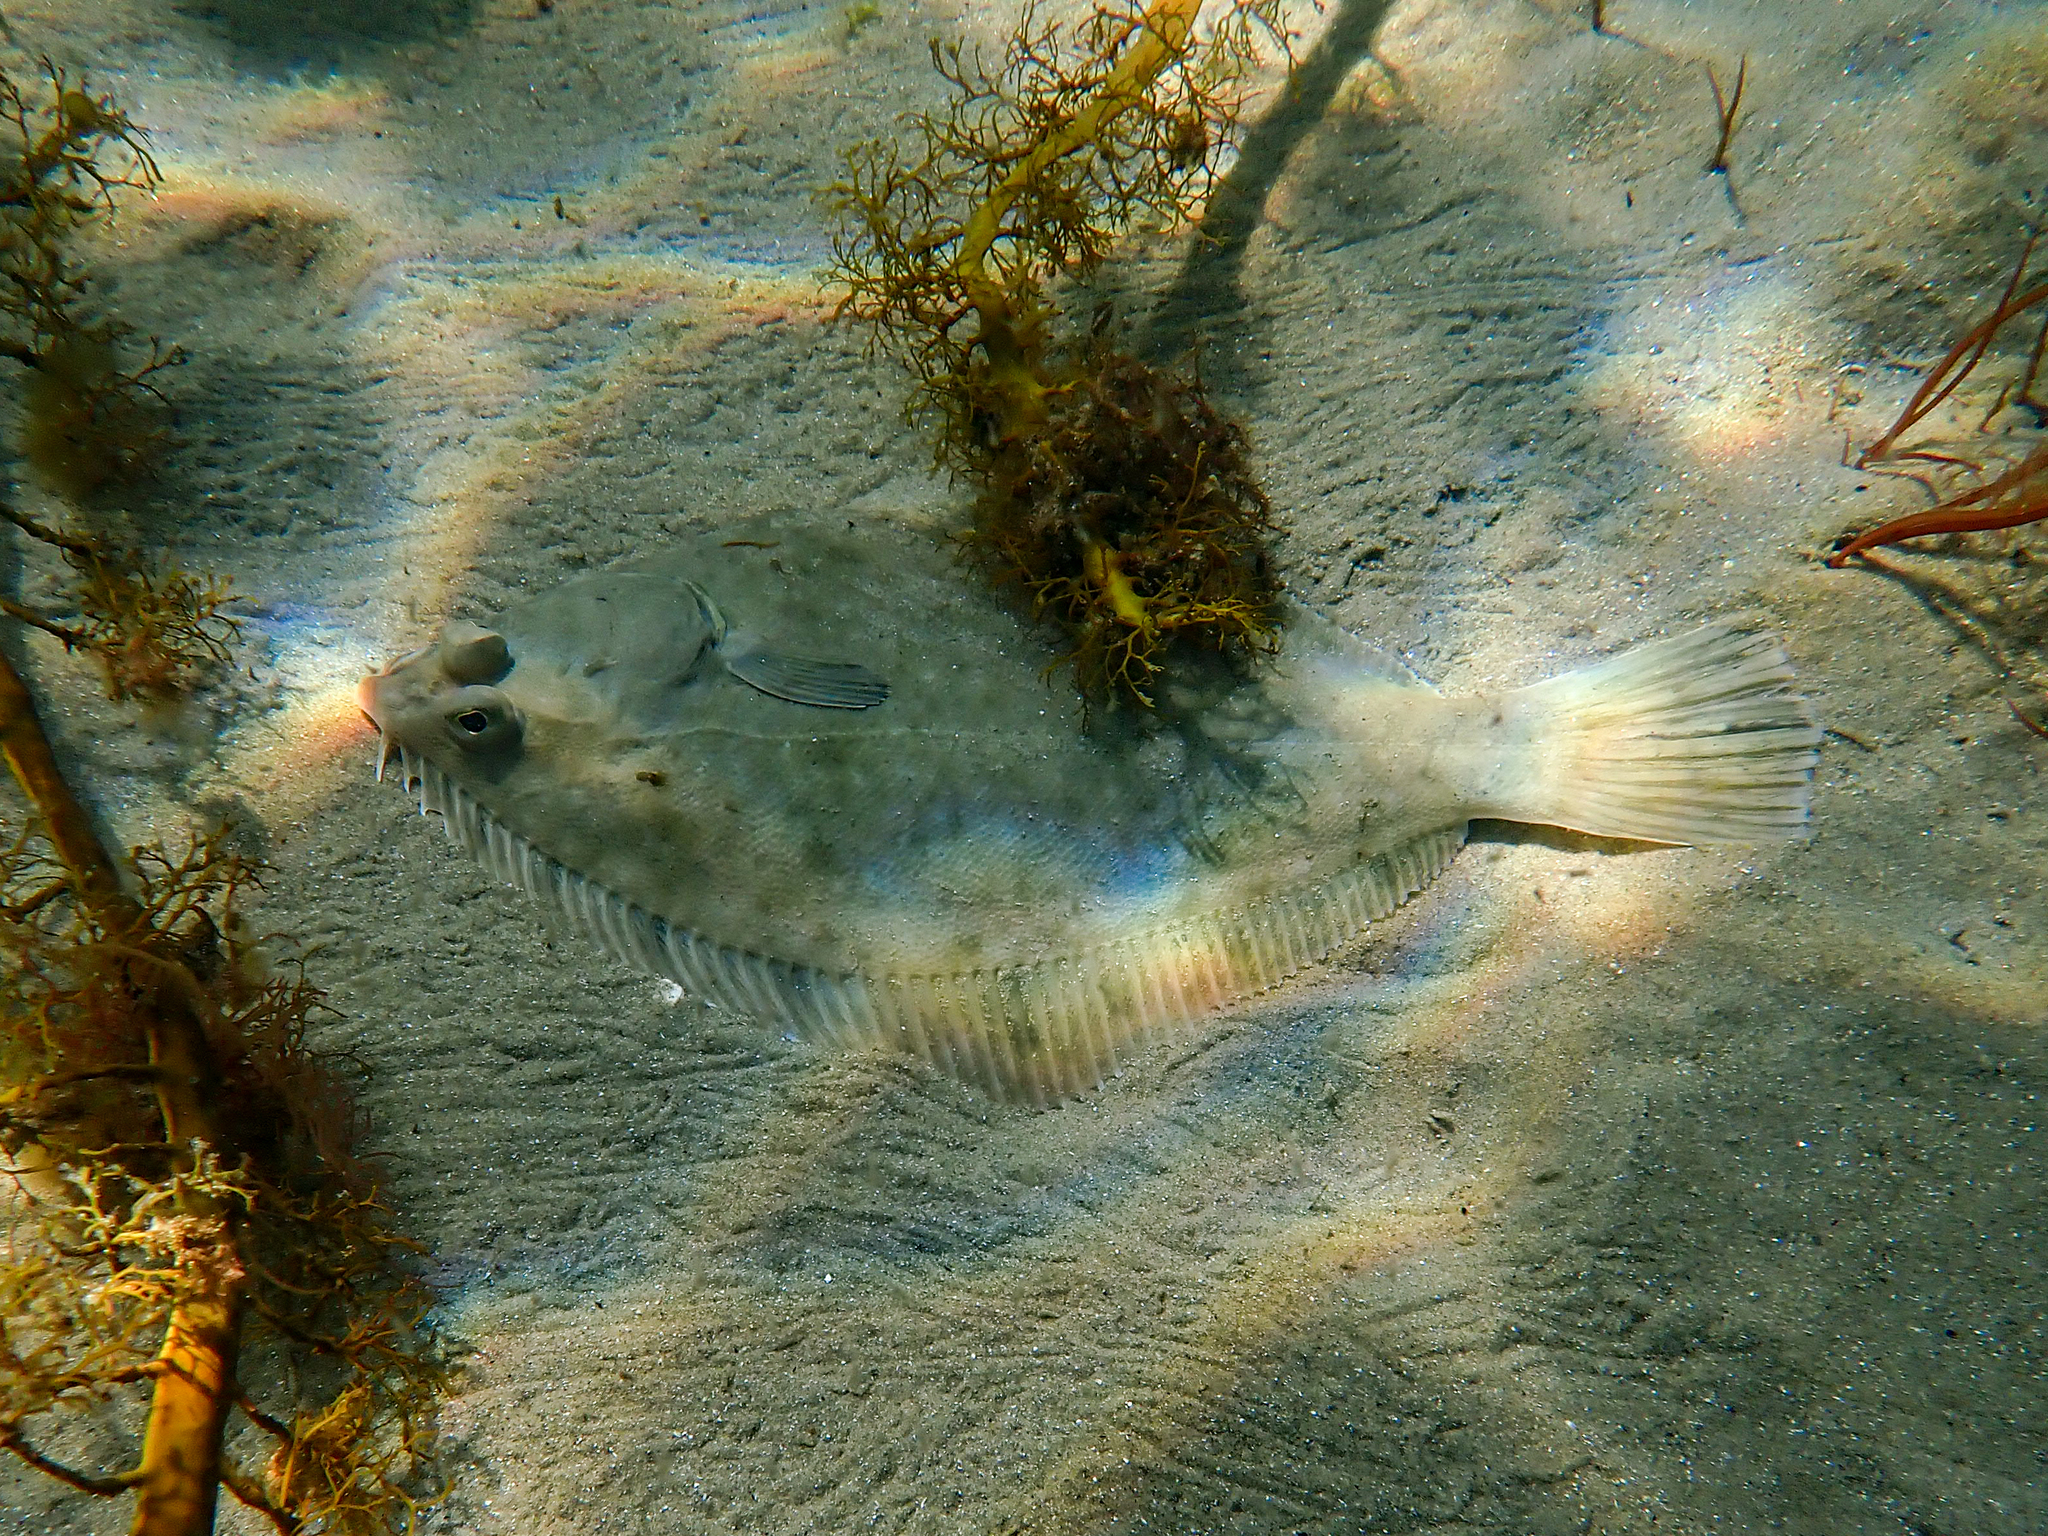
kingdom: Animalia
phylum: Chordata
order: Pleuronectiformes
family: Pleuronectidae
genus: Rhombosolea
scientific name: Rhombosolea tapirina
